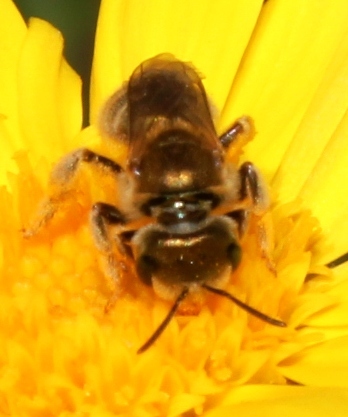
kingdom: Animalia
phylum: Arthropoda
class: Insecta
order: Hymenoptera
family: Halictidae
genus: Halictus
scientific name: Halictus jucundus
